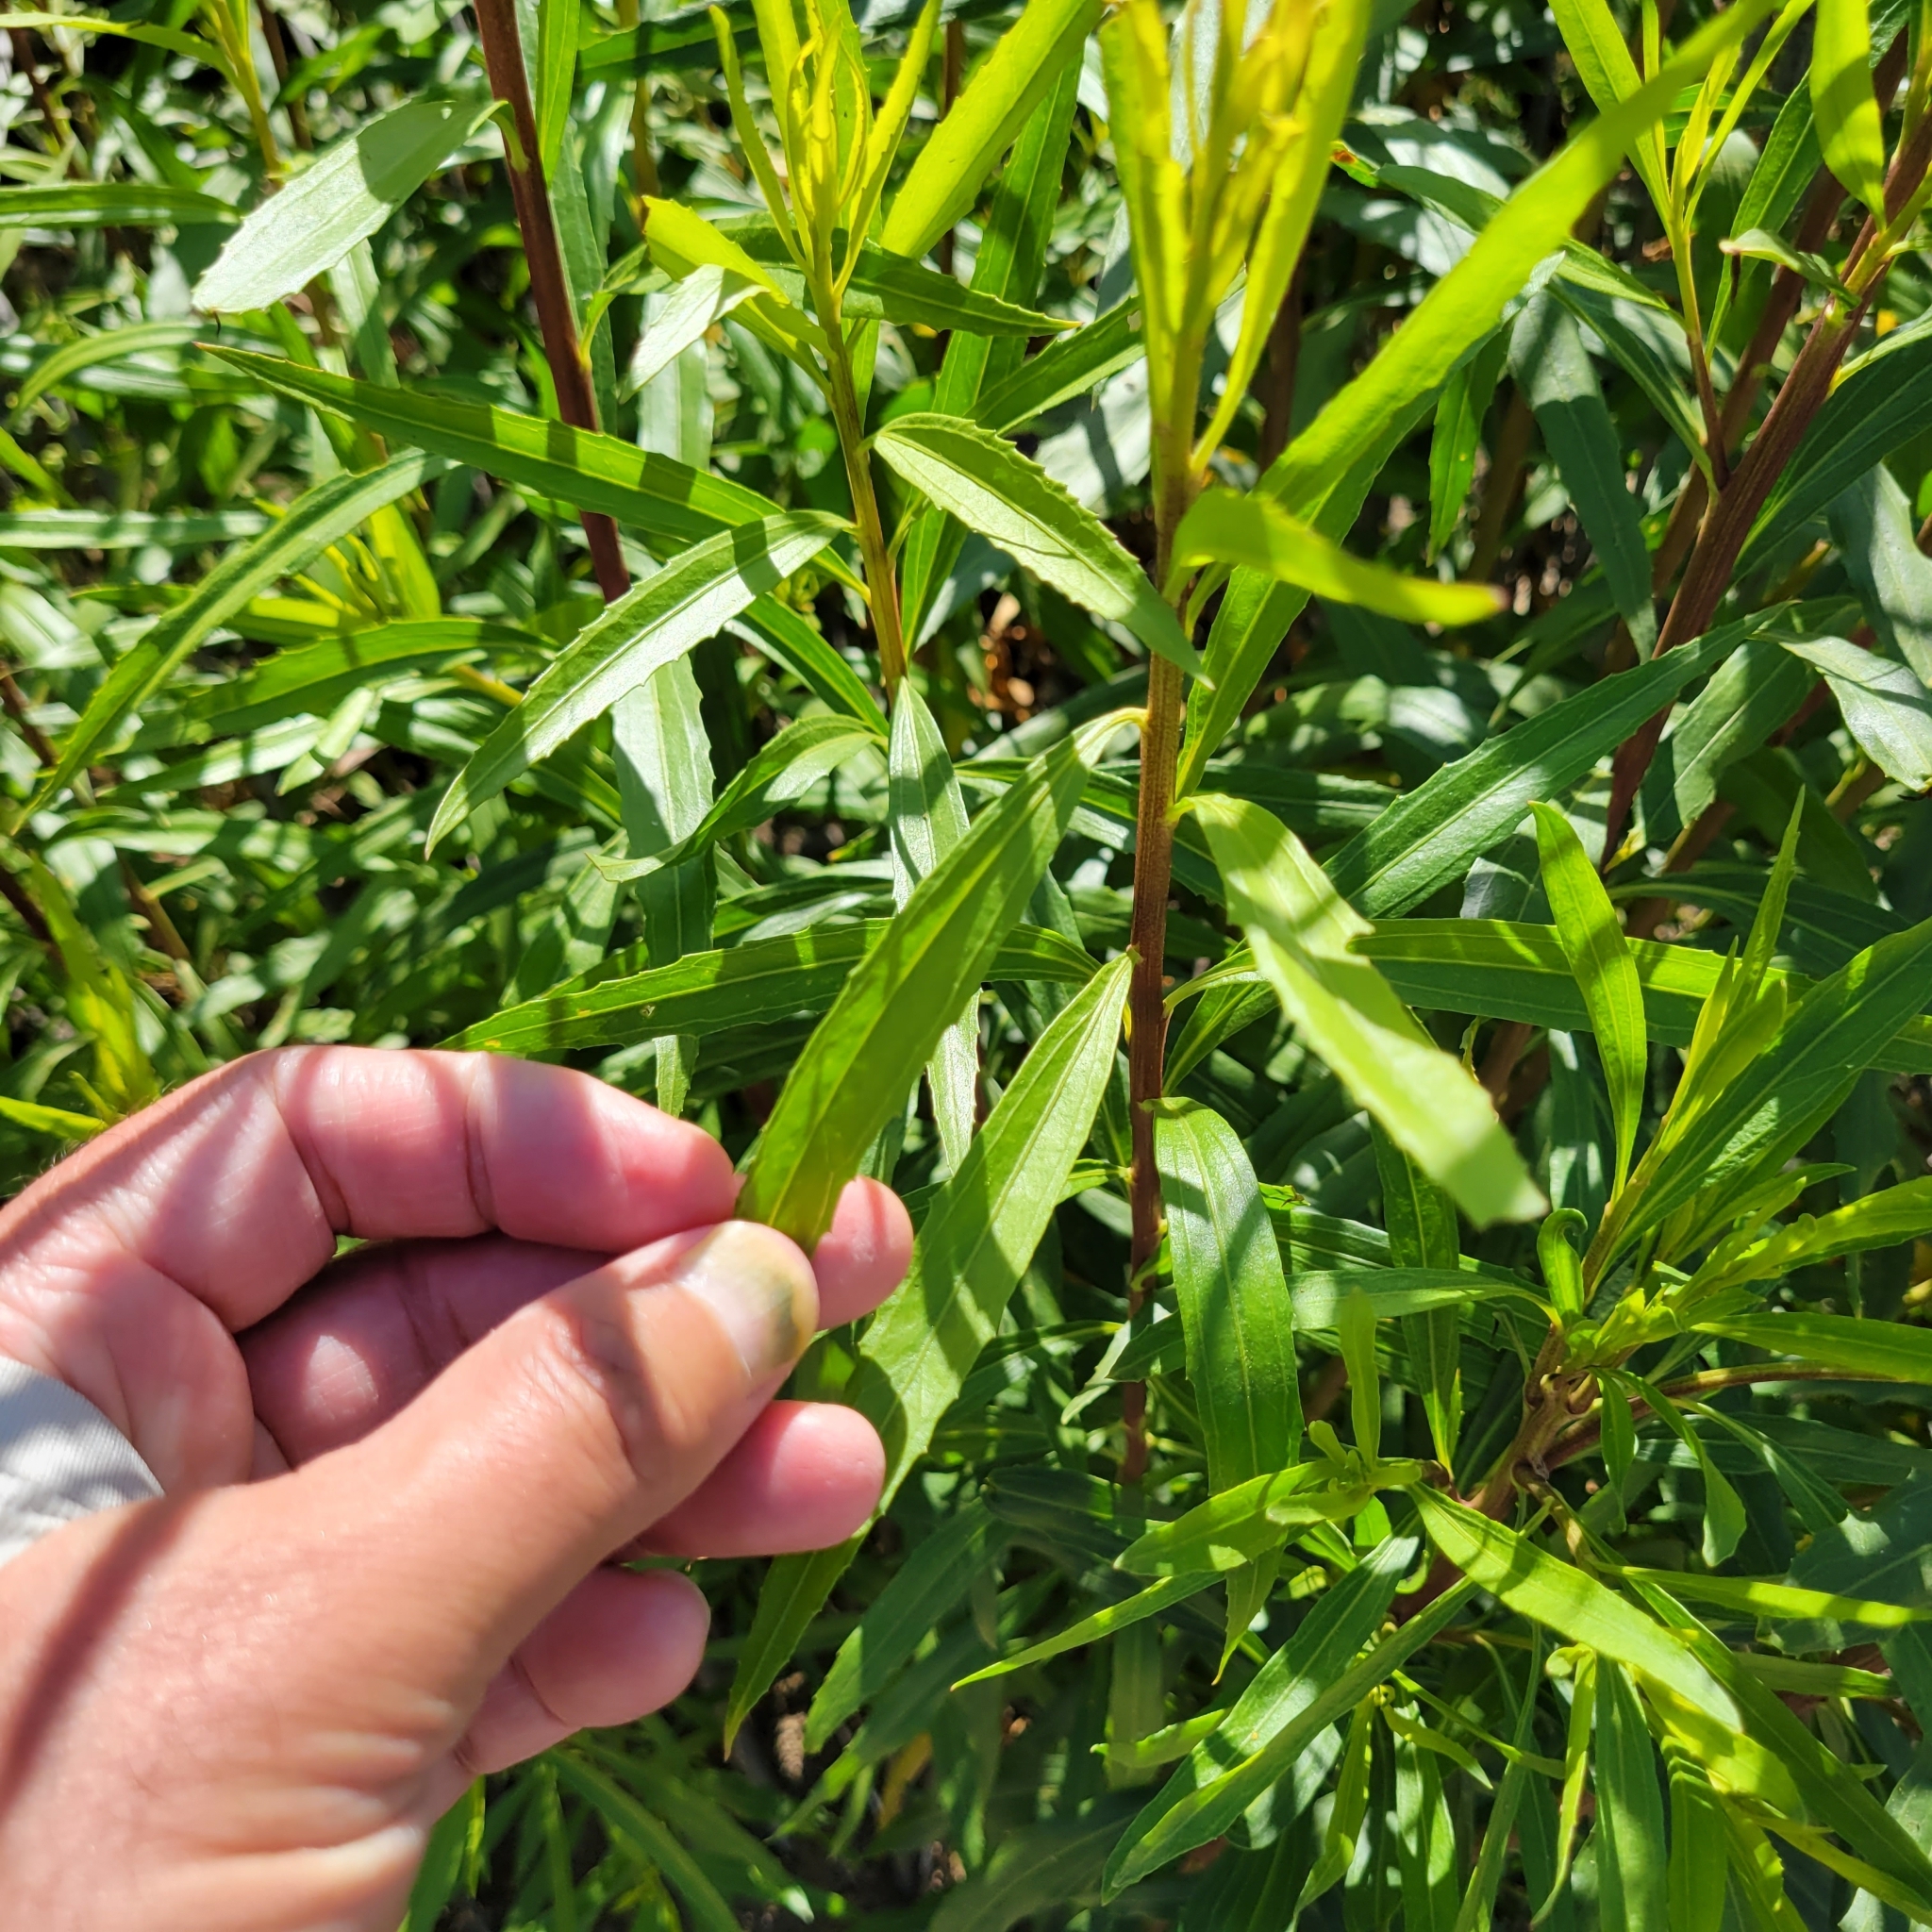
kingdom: Plantae
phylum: Tracheophyta
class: Magnoliopsida
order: Asterales
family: Asteraceae
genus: Baccharis
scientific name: Baccharis salicifolia
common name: Sticky baccharis
